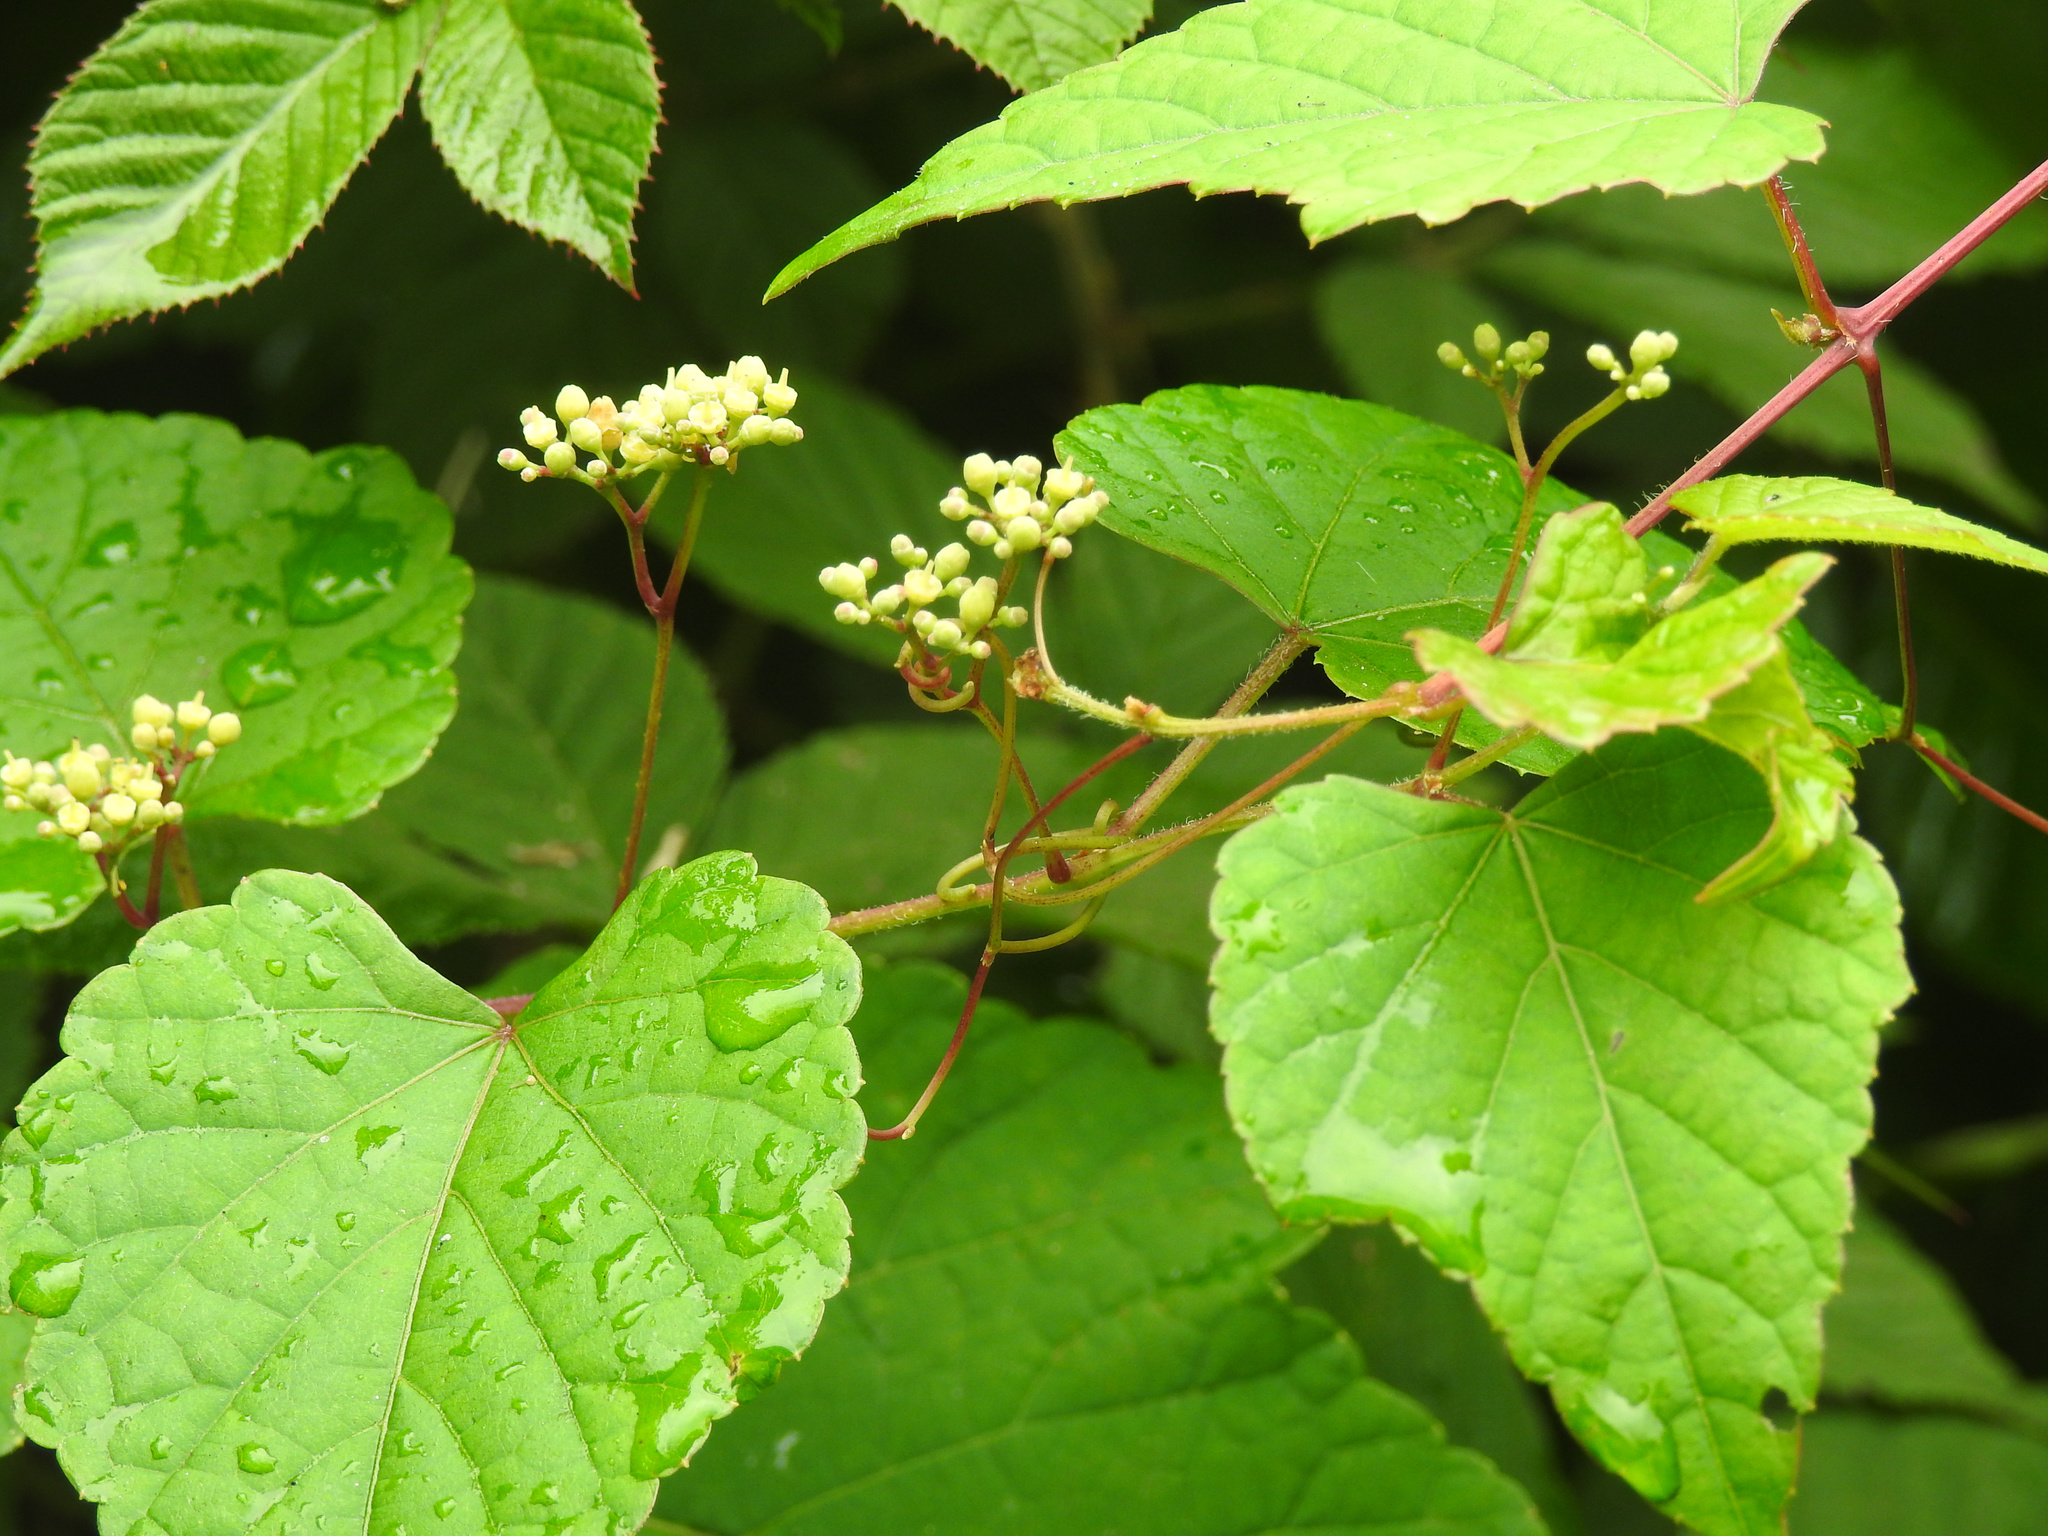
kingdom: Plantae
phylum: Tracheophyta
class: Magnoliopsida
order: Vitales
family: Vitaceae
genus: Ampelopsis
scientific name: Ampelopsis glandulosa
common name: Amur peppervine
